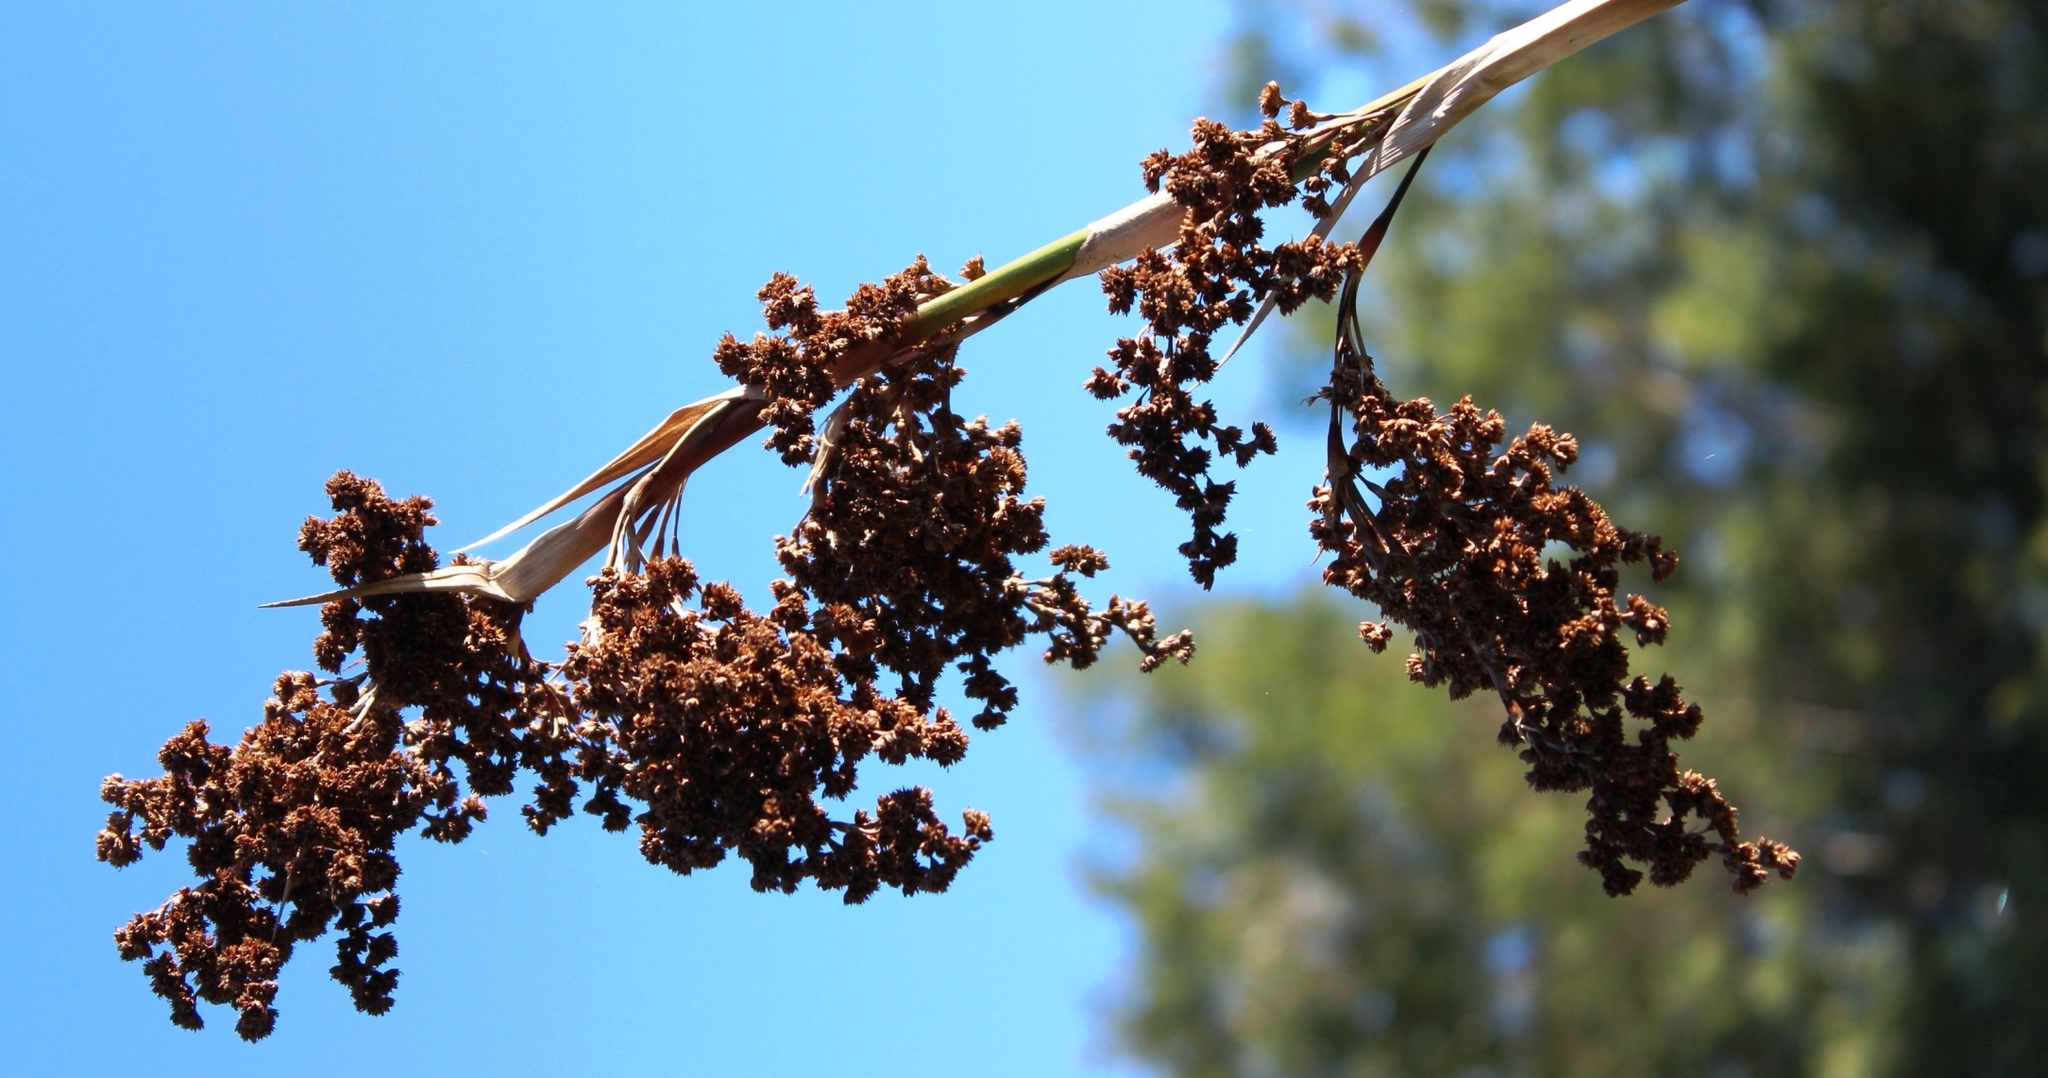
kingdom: Plantae
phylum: Tracheophyta
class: Liliopsida
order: Poales
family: Thurniaceae
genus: Prionium
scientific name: Prionium serratum
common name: Palmiet
